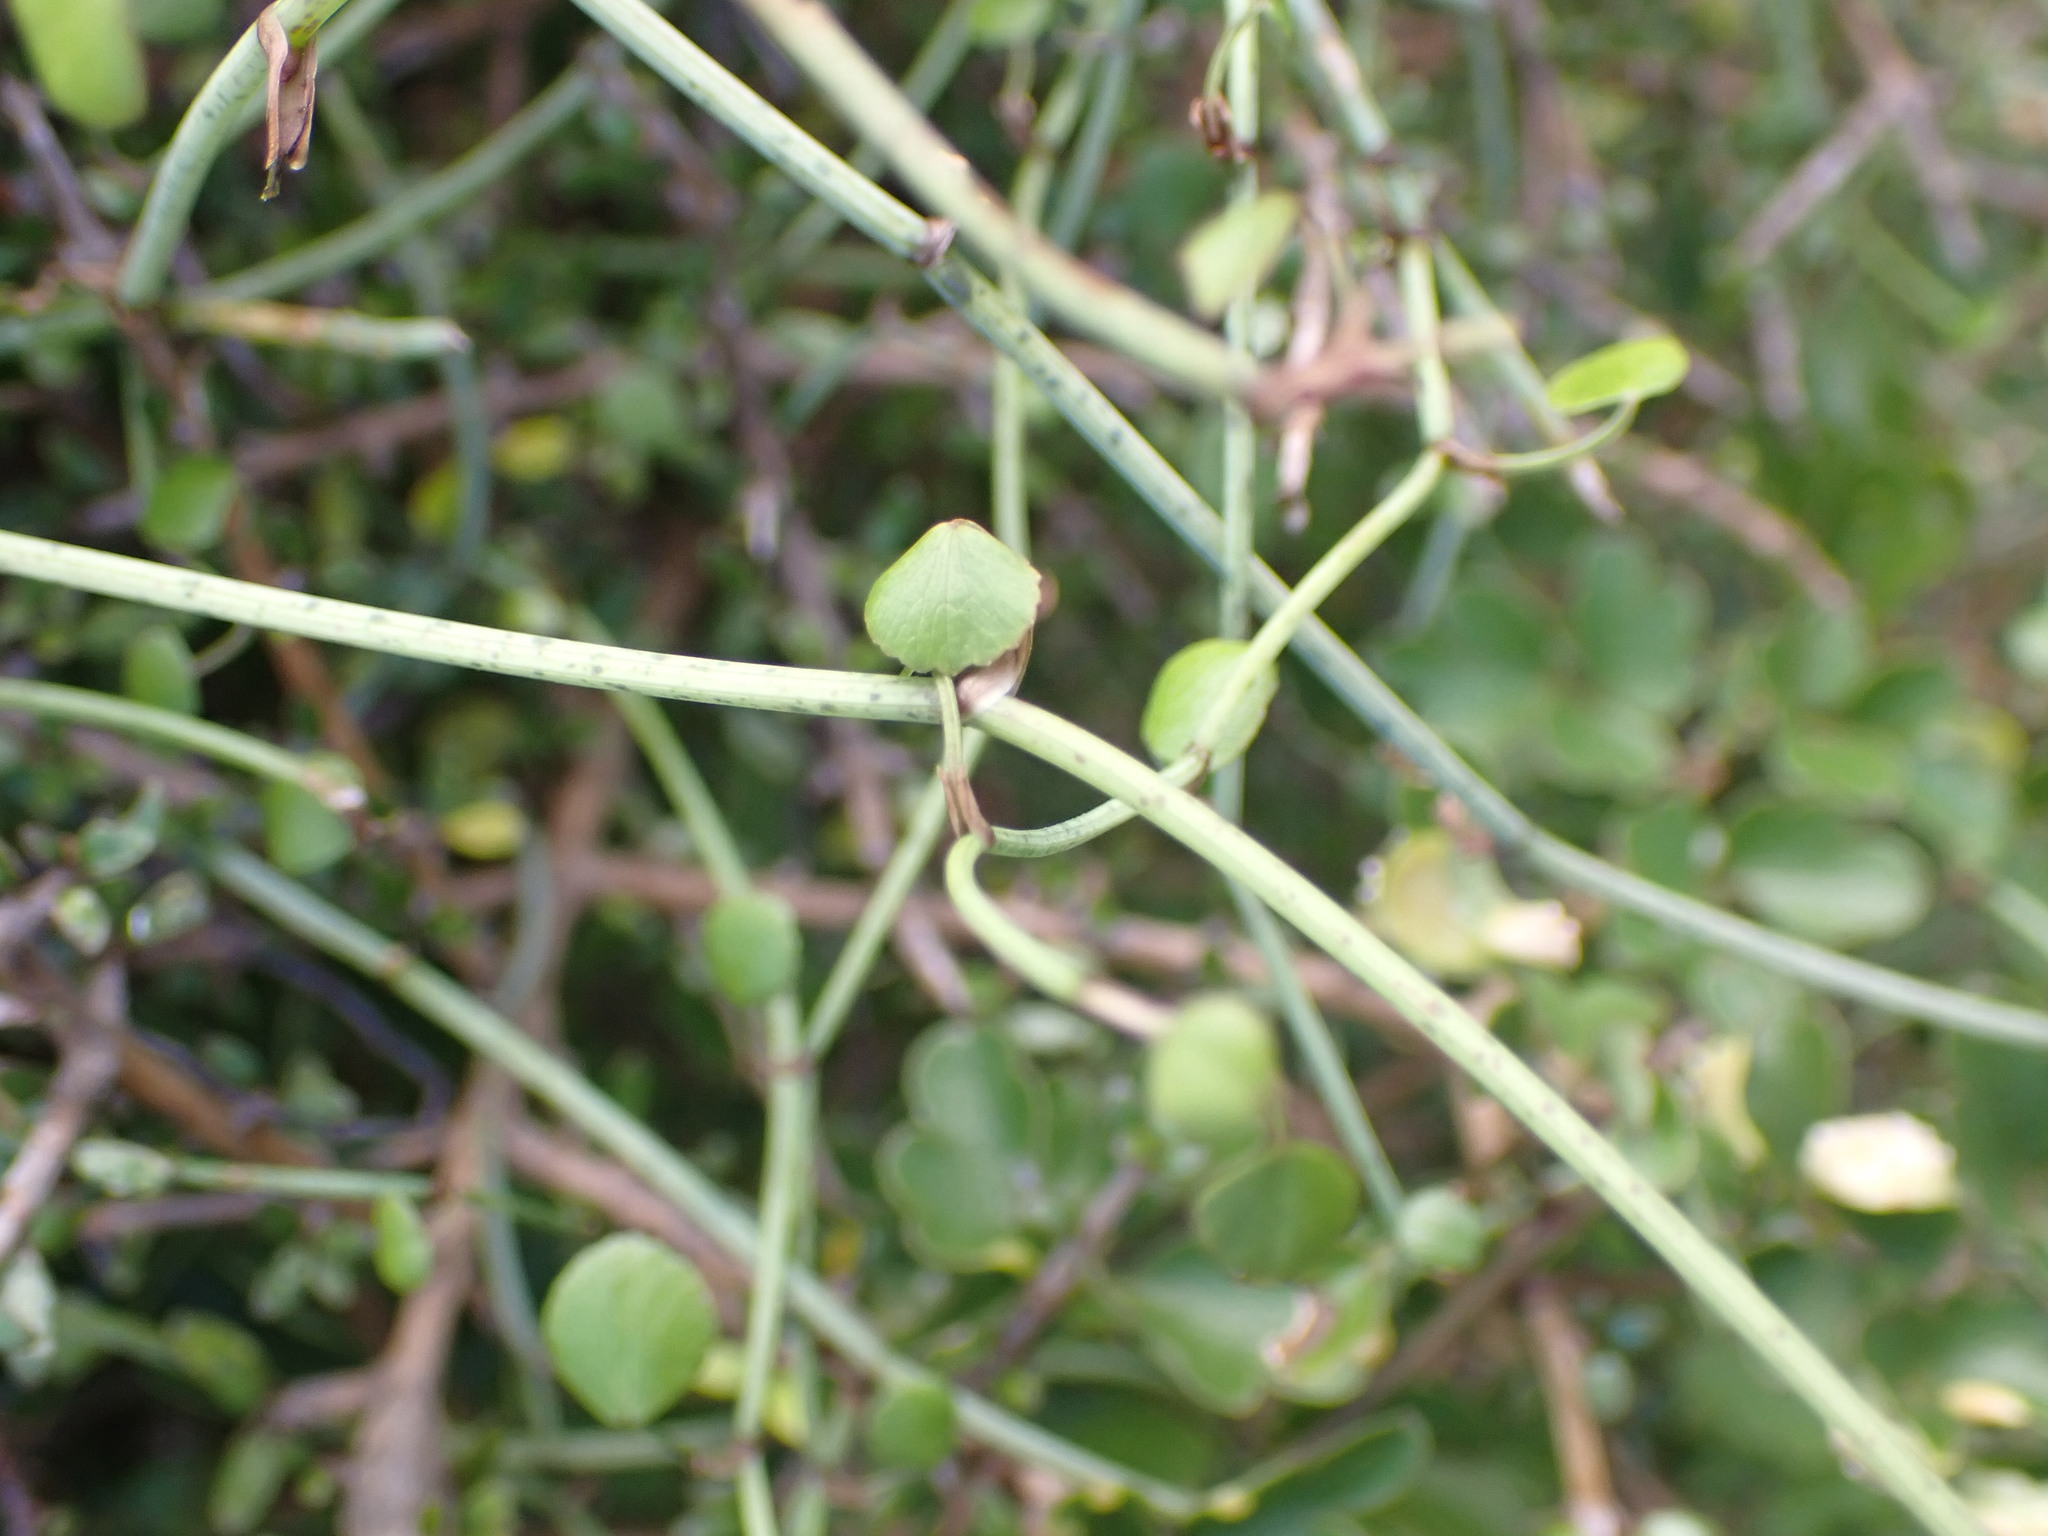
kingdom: Plantae
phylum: Tracheophyta
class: Magnoliopsida
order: Apiales
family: Apiaceae
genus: Scandia
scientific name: Scandia geniculata
